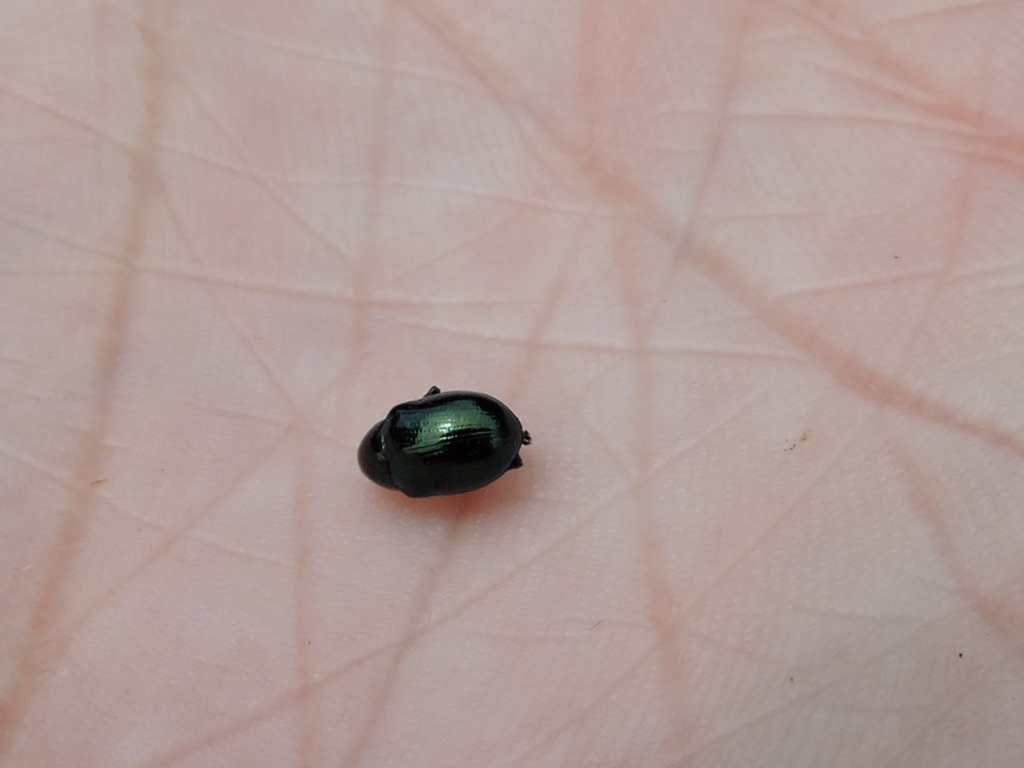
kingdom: Animalia
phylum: Arthropoda
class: Insecta
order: Coleoptera
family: Chrysomelidae
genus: Typophorus
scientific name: Typophorus nigritus
